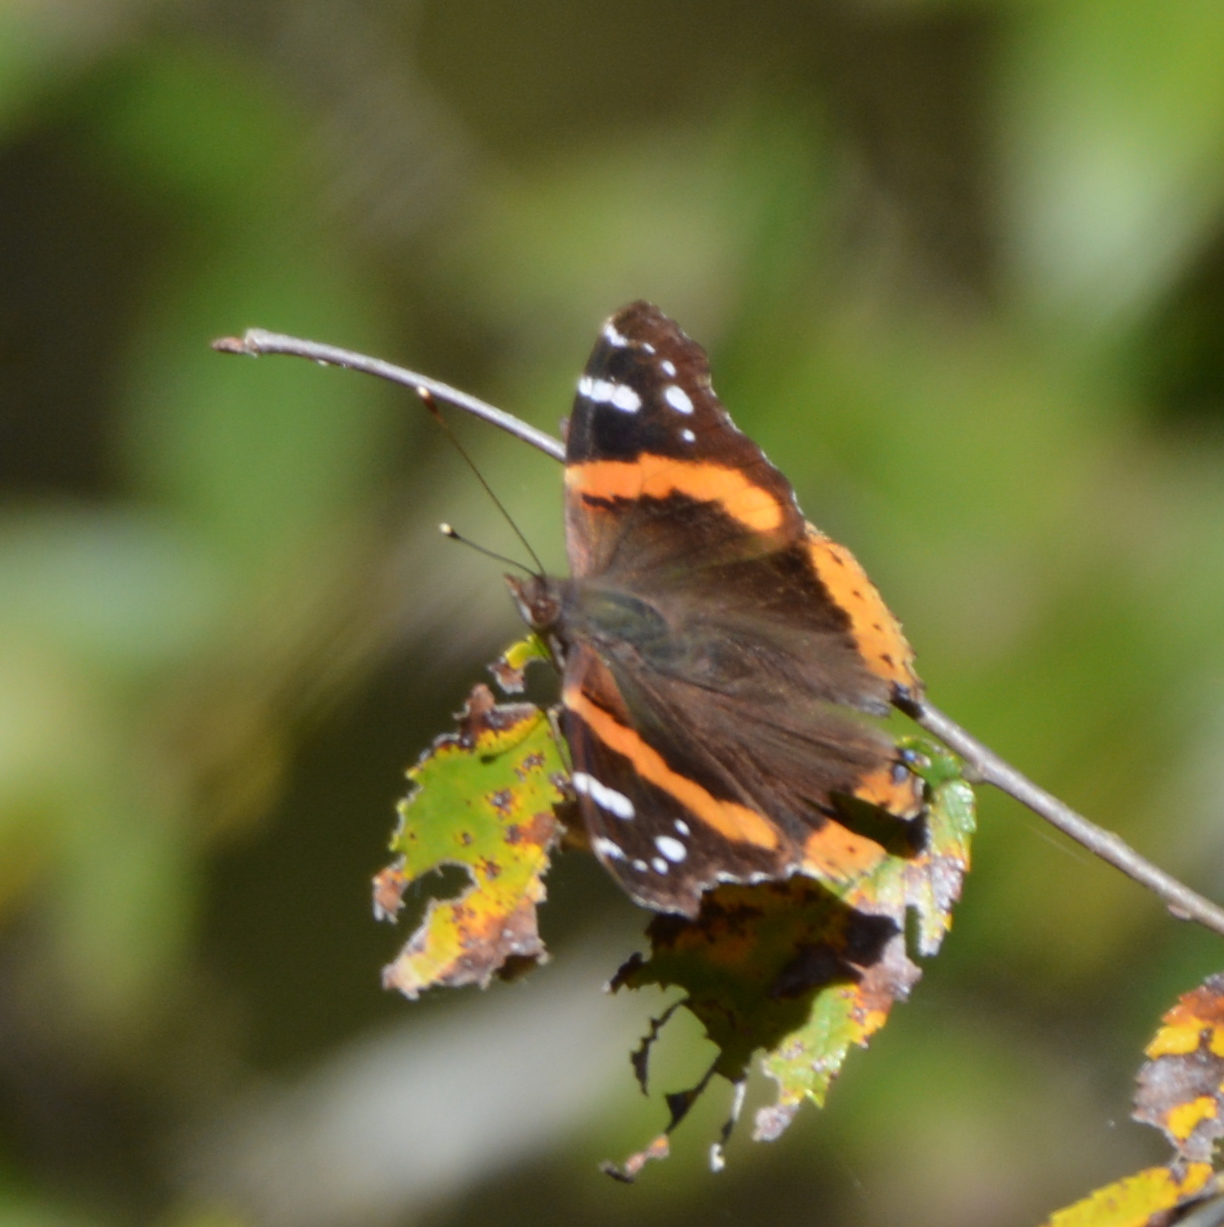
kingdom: Animalia
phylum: Arthropoda
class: Insecta
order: Lepidoptera
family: Nymphalidae
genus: Vanessa
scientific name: Vanessa atalanta
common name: Red admiral
